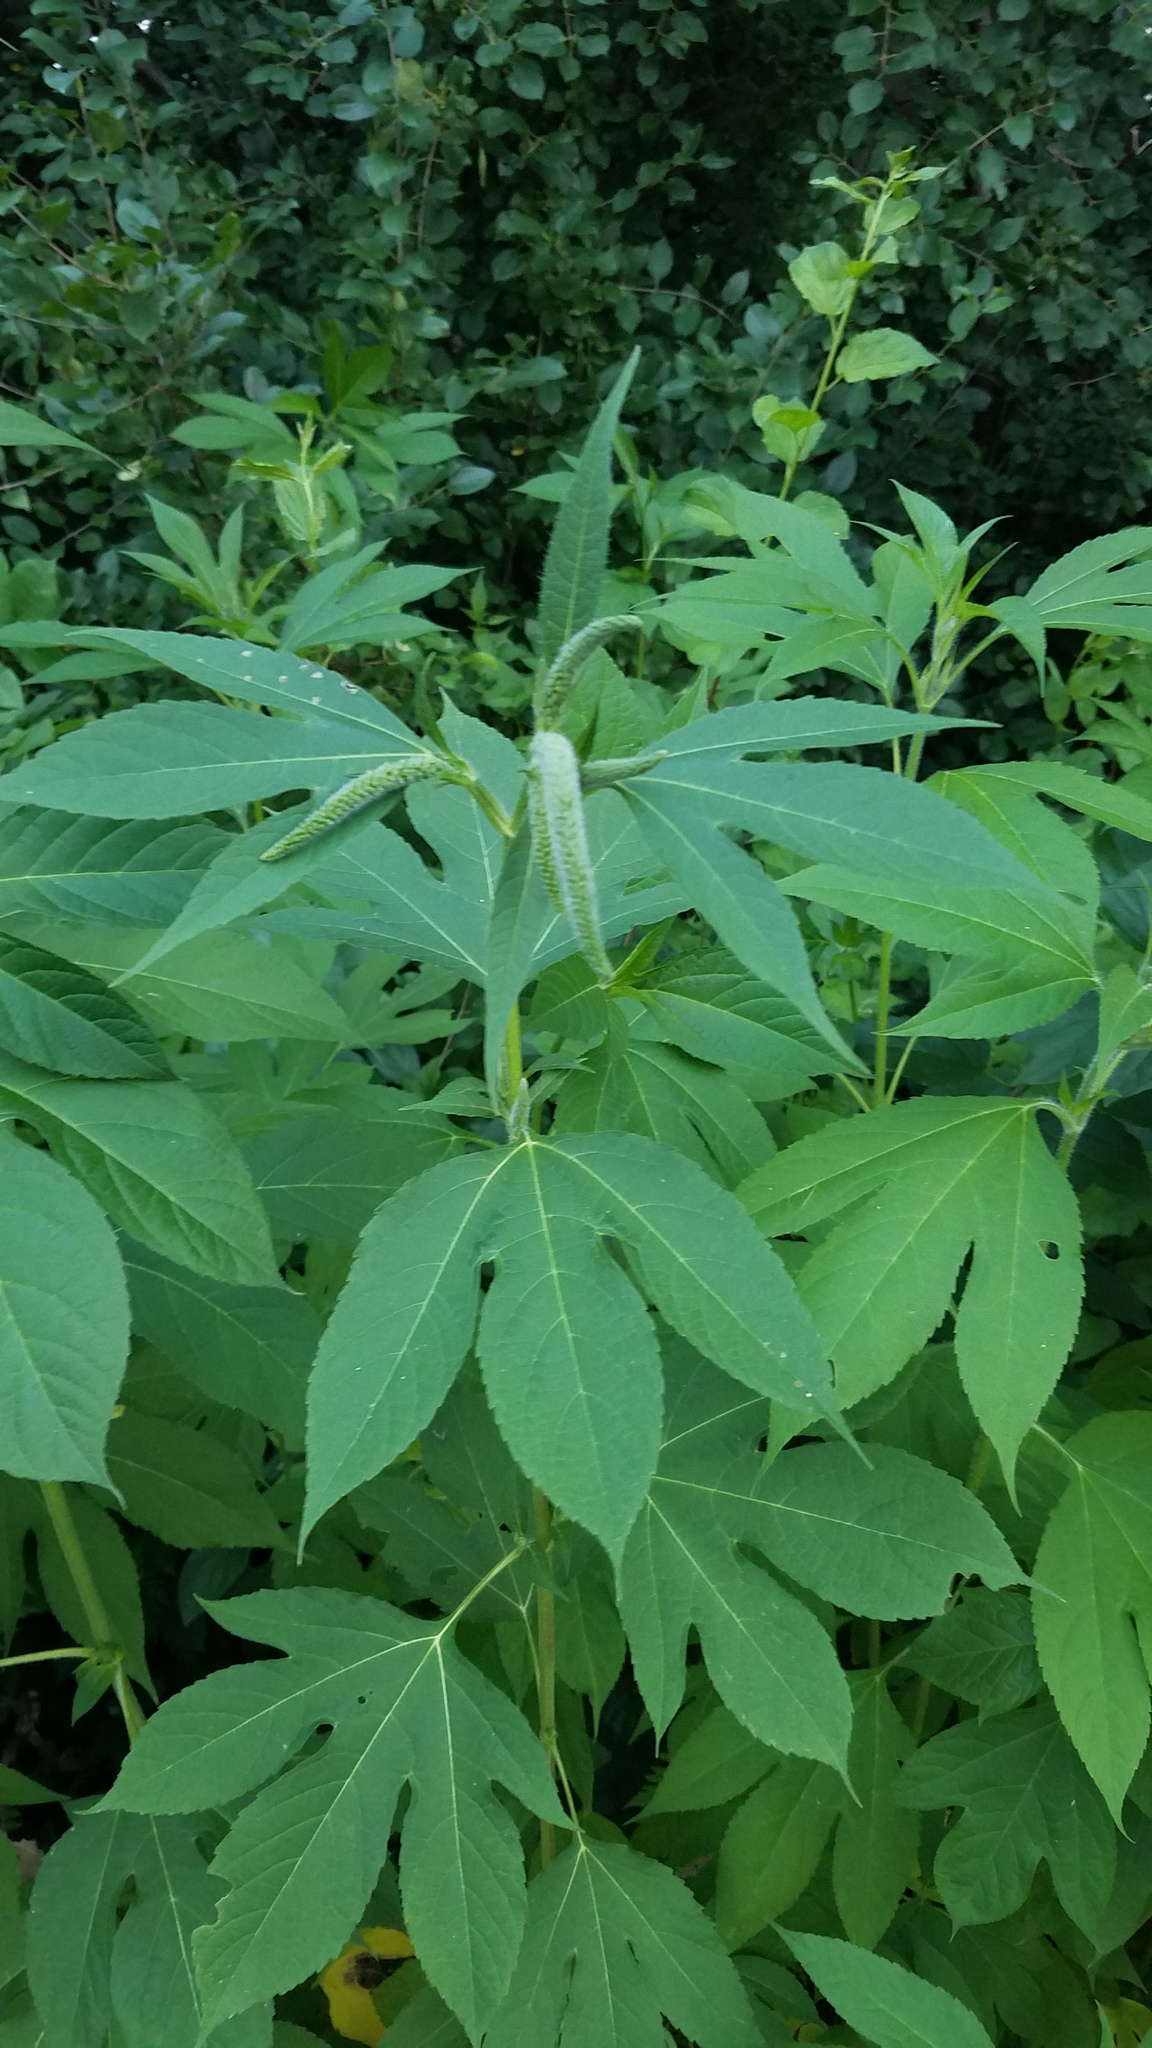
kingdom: Plantae
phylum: Tracheophyta
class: Magnoliopsida
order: Asterales
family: Asteraceae
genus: Ambrosia
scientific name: Ambrosia trifida
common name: Giant ragweed
